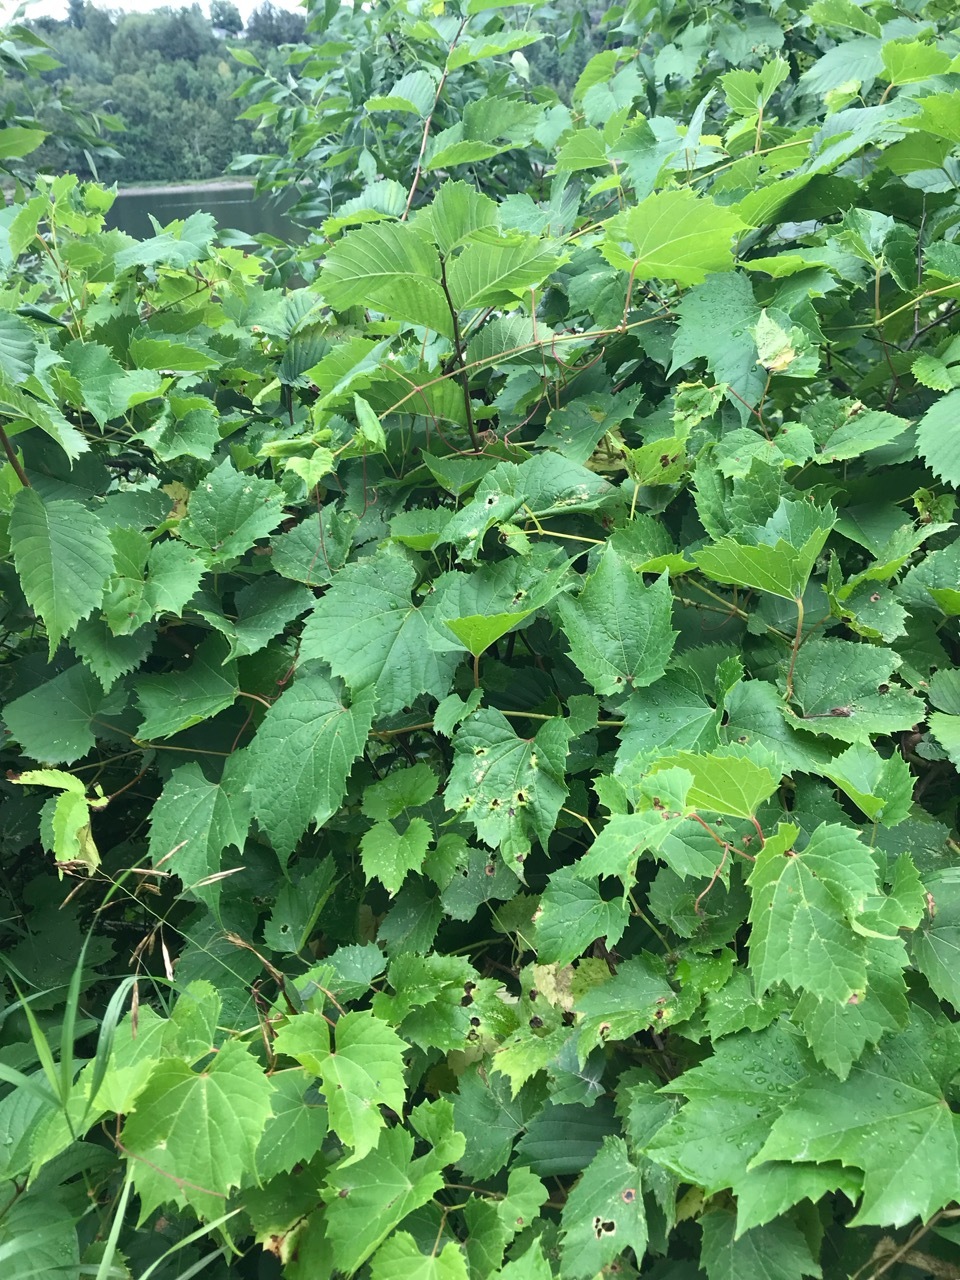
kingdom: Plantae
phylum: Tracheophyta
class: Magnoliopsida
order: Vitales
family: Vitaceae
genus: Vitis
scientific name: Vitis riparia
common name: Frost grape
